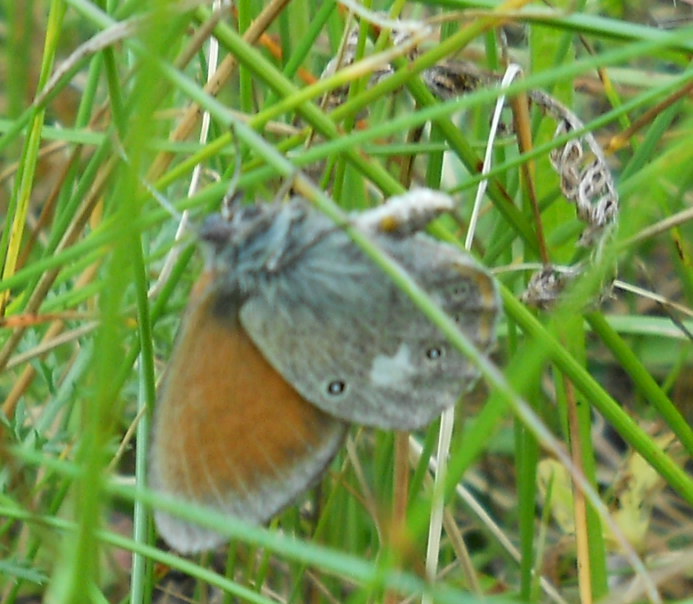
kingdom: Animalia
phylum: Arthropoda
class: Insecta
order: Lepidoptera
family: Nymphalidae
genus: Coenonympha
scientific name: Coenonympha iphis
